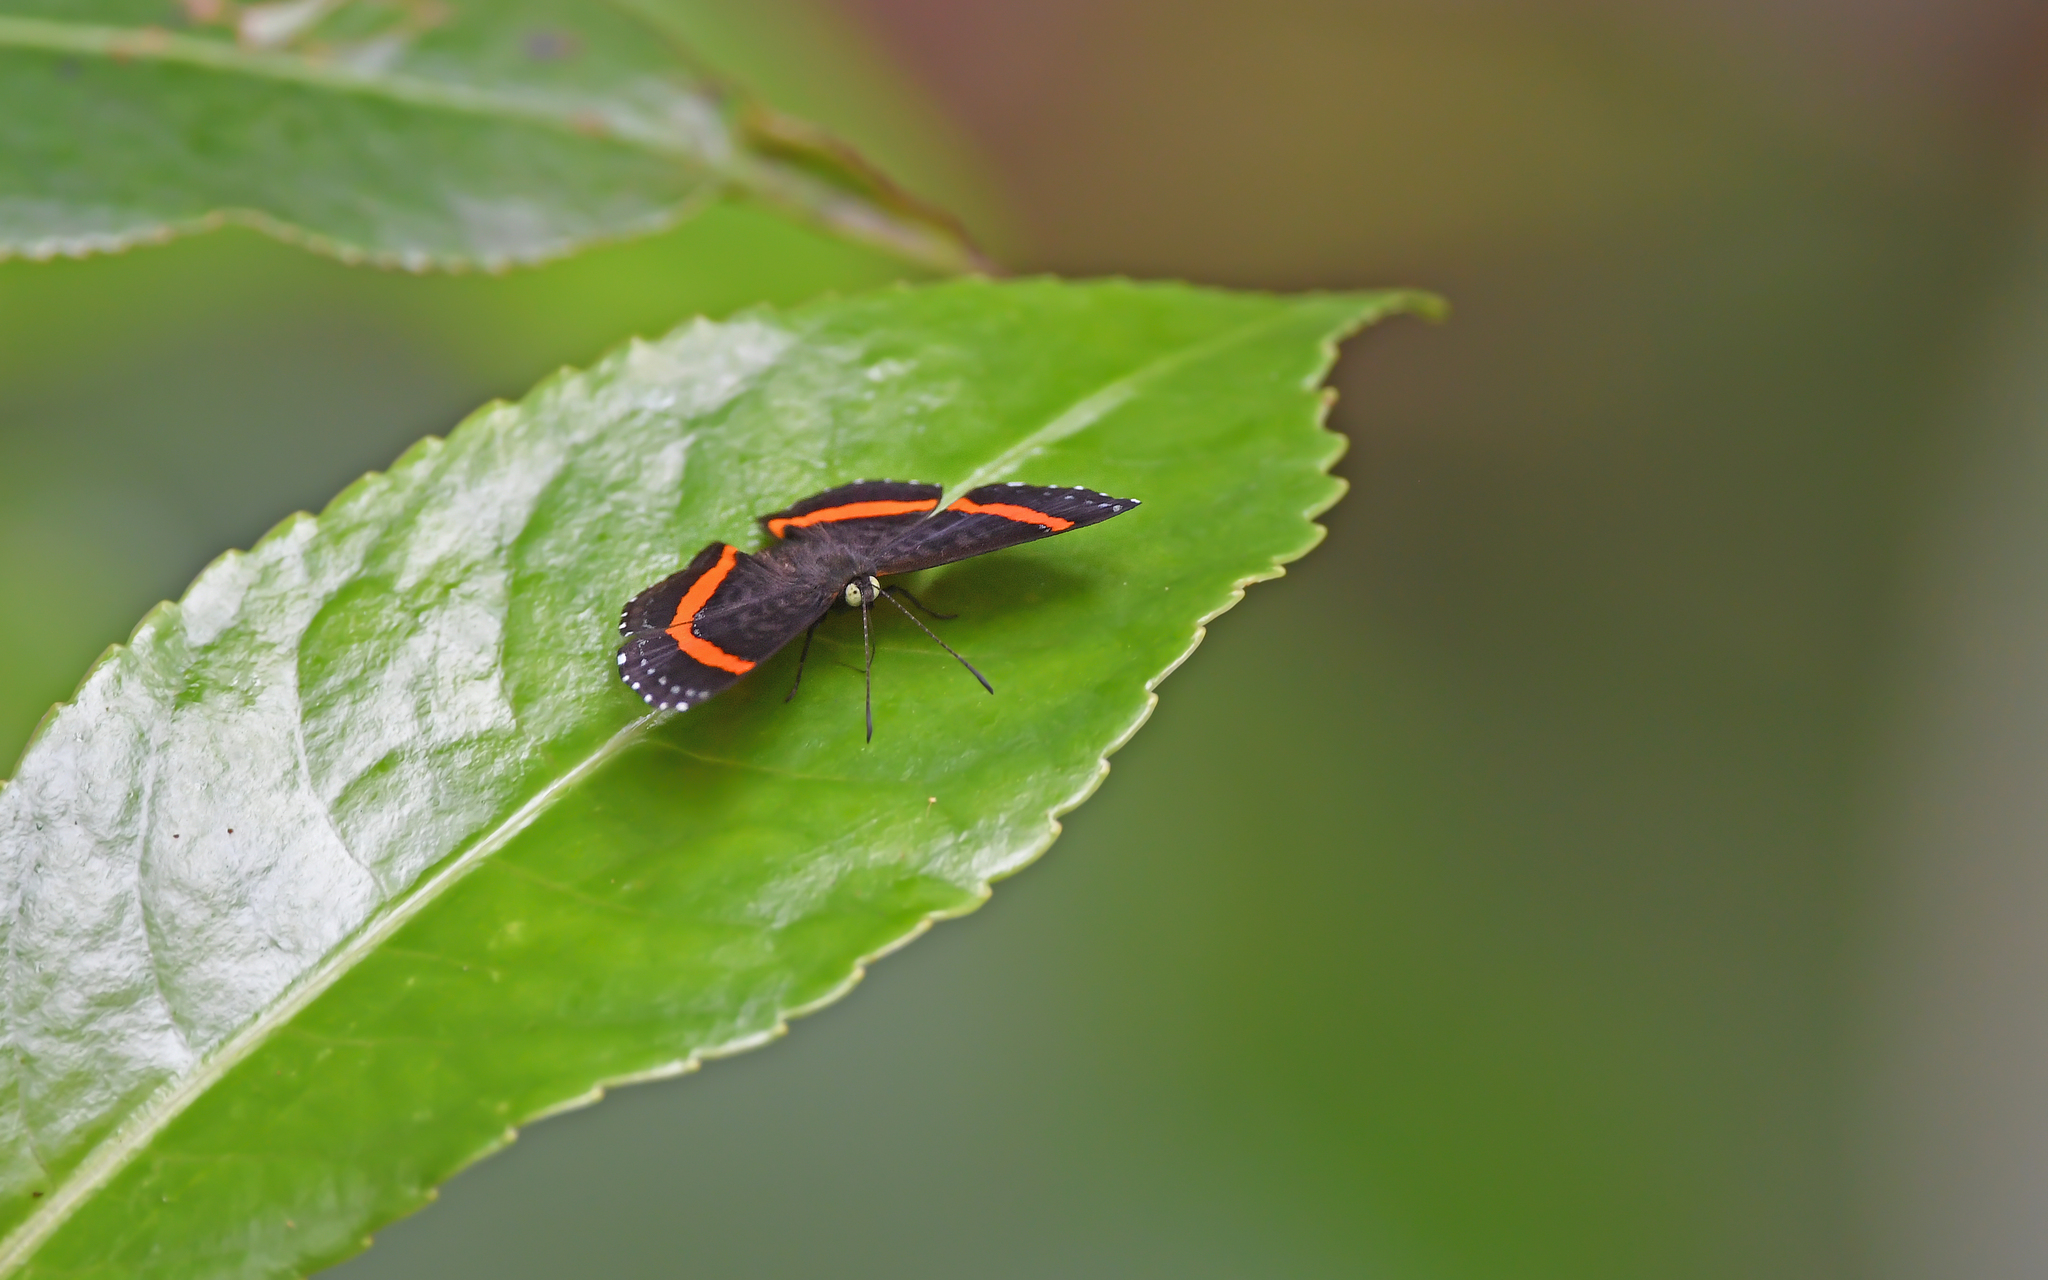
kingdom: Animalia
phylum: Arthropoda
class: Insecta
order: Lepidoptera
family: Riodinidae
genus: Crocozona
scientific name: Crocozona coecias
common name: Orange-banded gem
